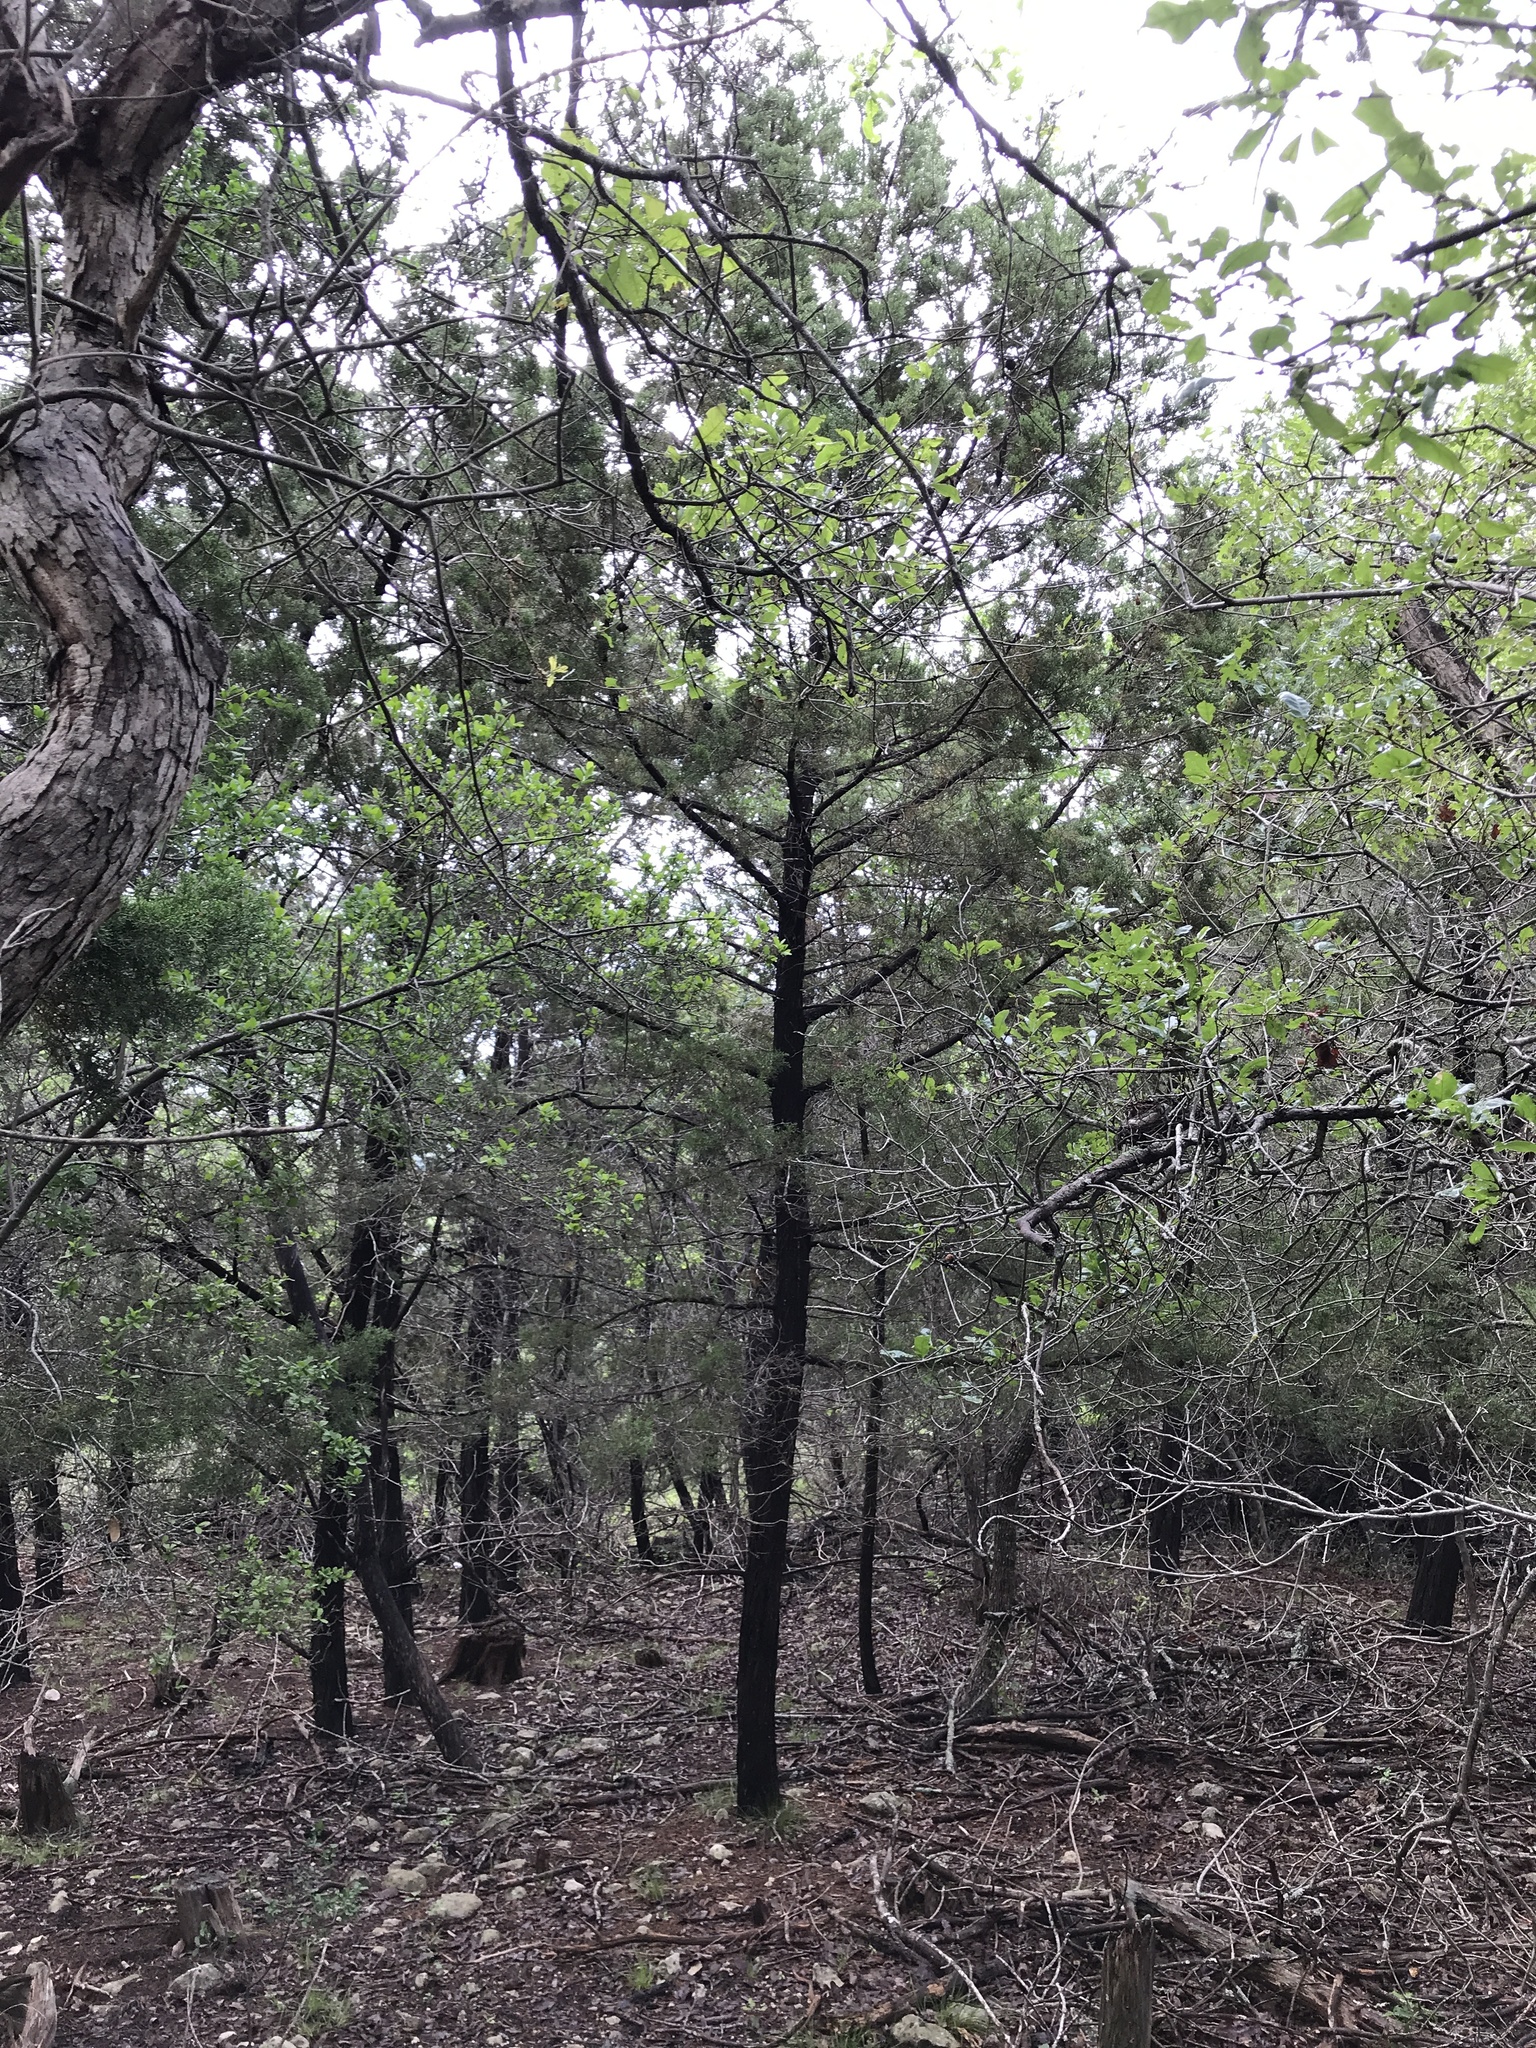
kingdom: Plantae
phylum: Tracheophyta
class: Pinopsida
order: Pinales
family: Cupressaceae
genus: Juniperus
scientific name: Juniperus ashei
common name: Mexican juniper
